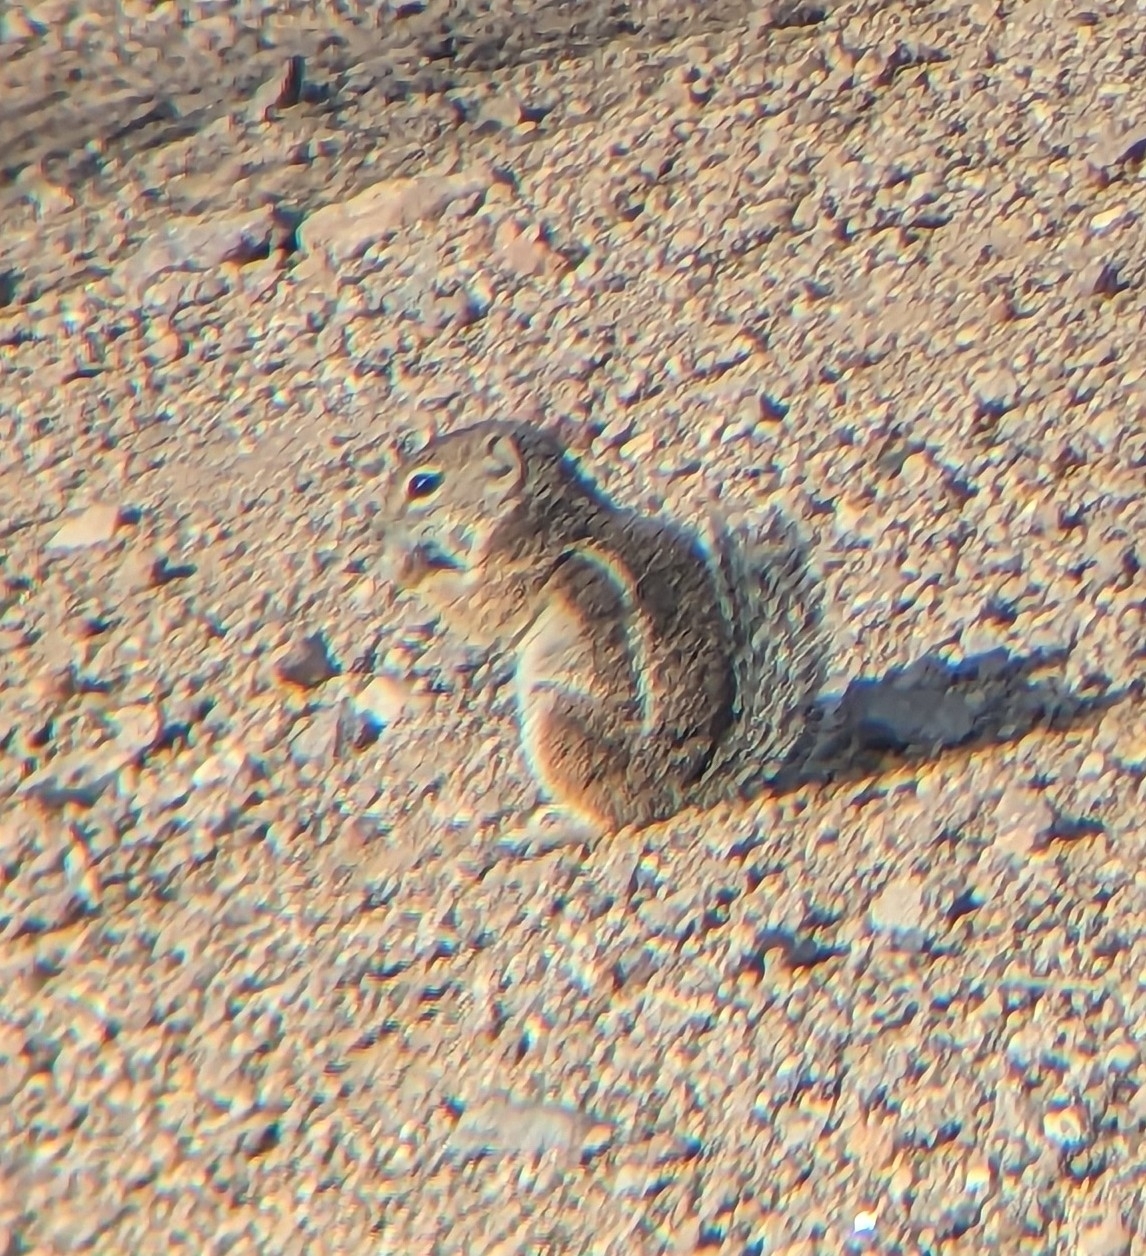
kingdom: Animalia
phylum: Chordata
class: Mammalia
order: Rodentia
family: Sciuridae
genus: Ammospermophilus
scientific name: Ammospermophilus harrisii
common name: Harris's antelope squirrel
